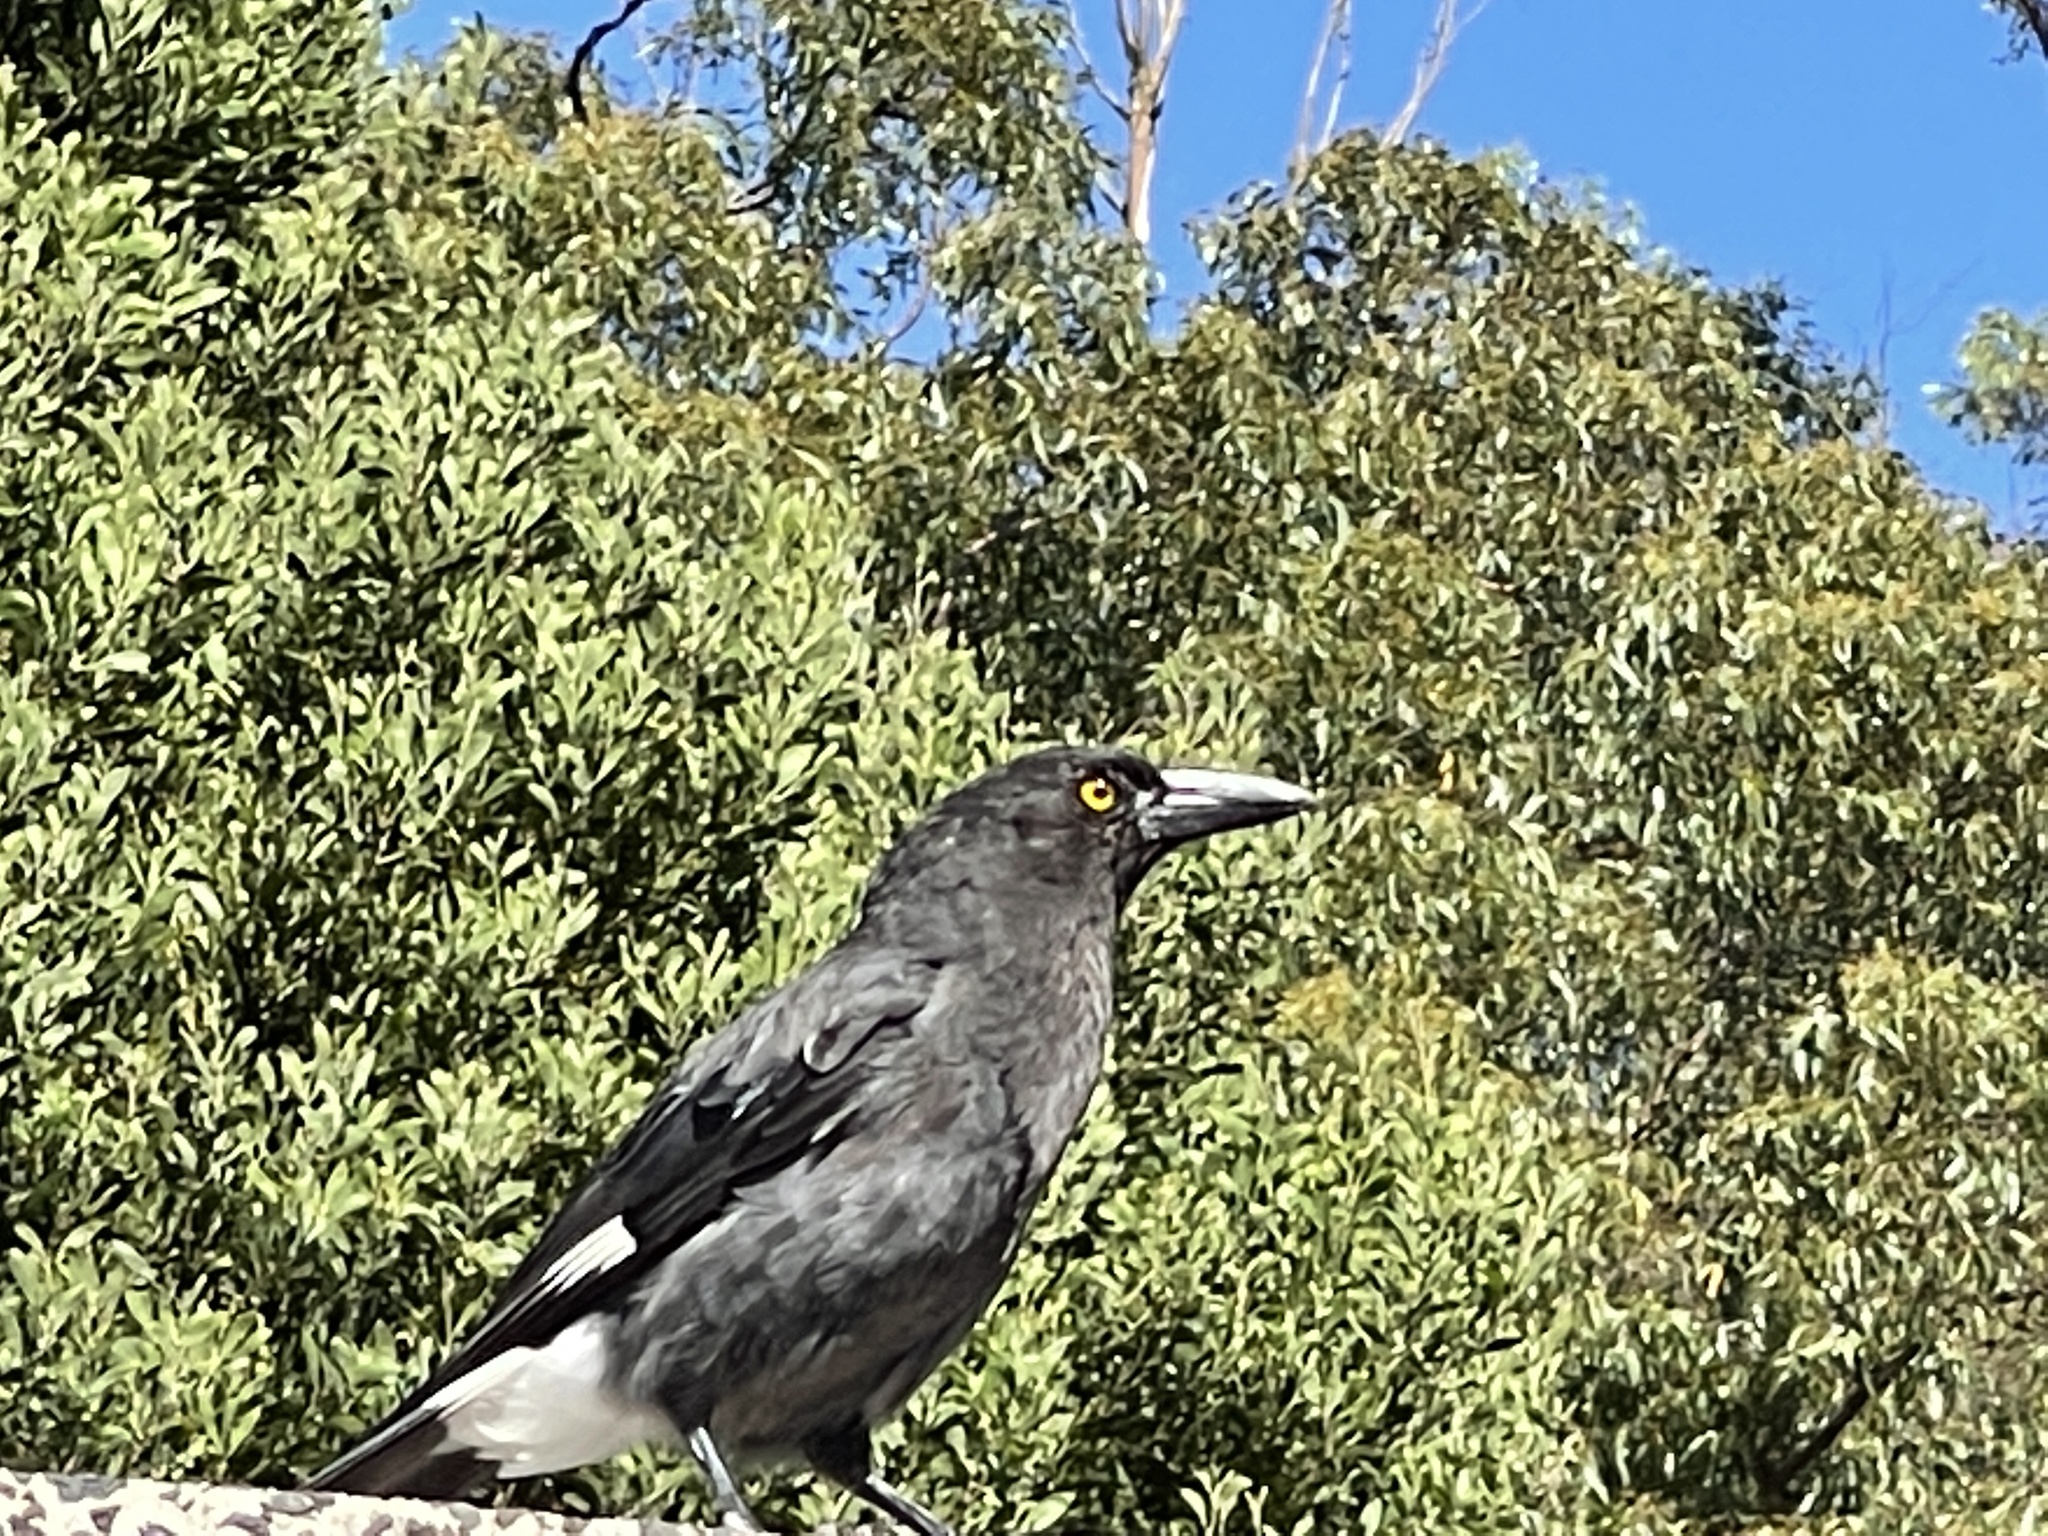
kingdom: Animalia
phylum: Chordata
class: Aves
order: Passeriformes
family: Cracticidae
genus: Strepera
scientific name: Strepera graculina
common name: Pied currawong
